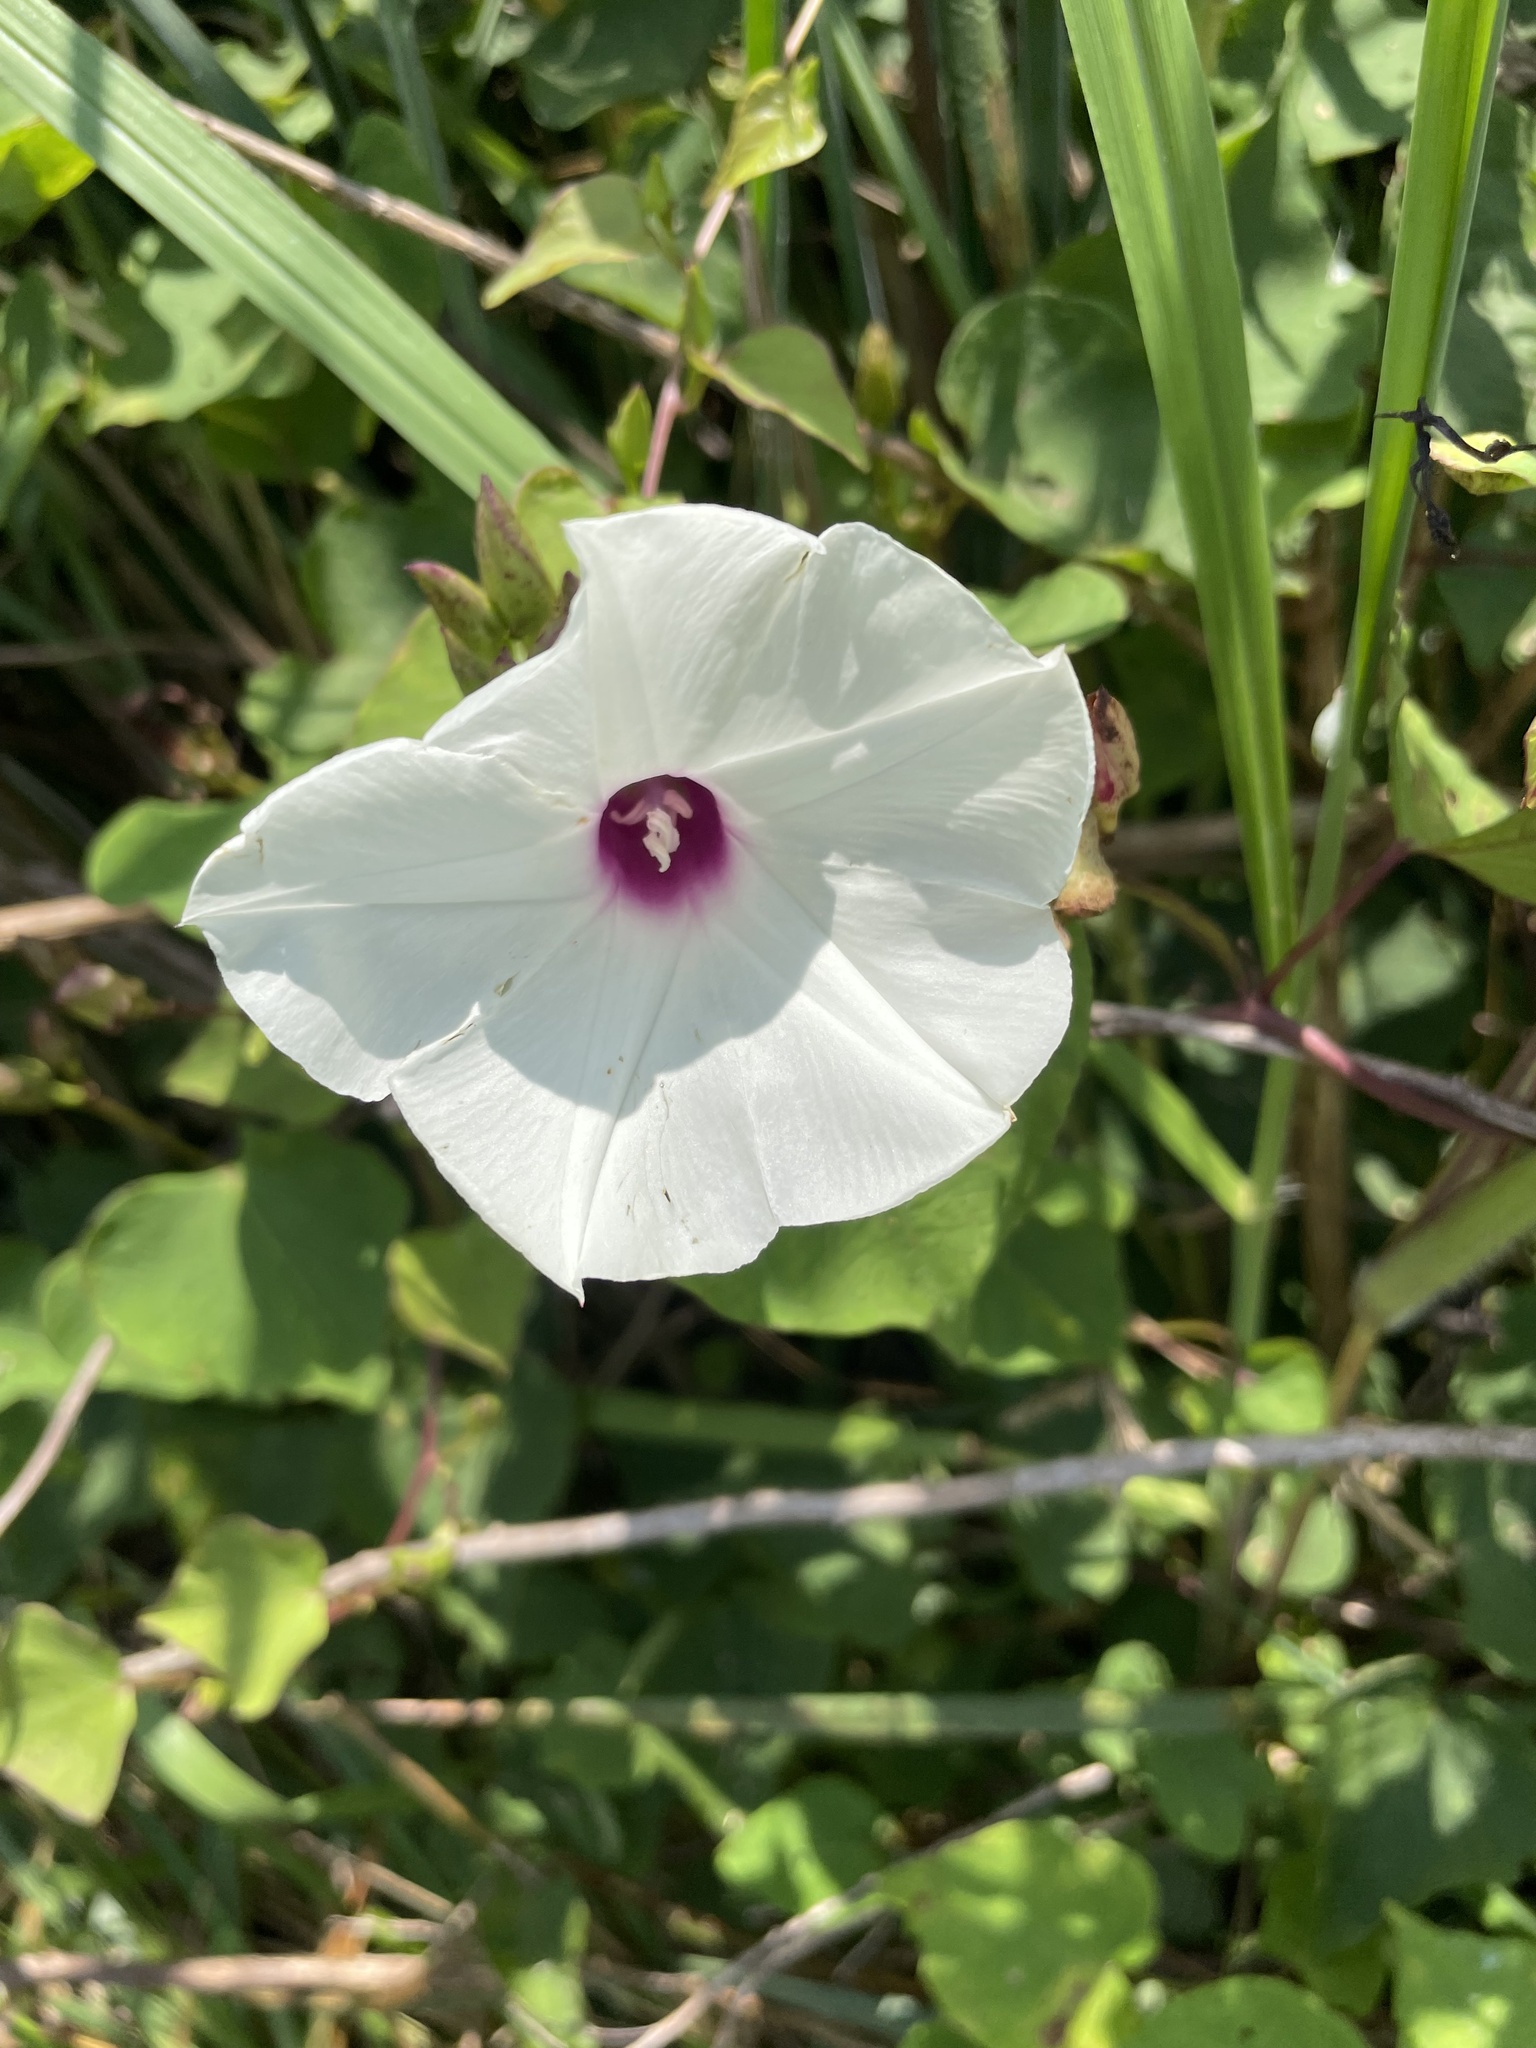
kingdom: Plantae
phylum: Tracheophyta
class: Magnoliopsida
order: Solanales
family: Convolvulaceae
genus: Ipomoea
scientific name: Ipomoea pandurata
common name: Man-of-the-earth
